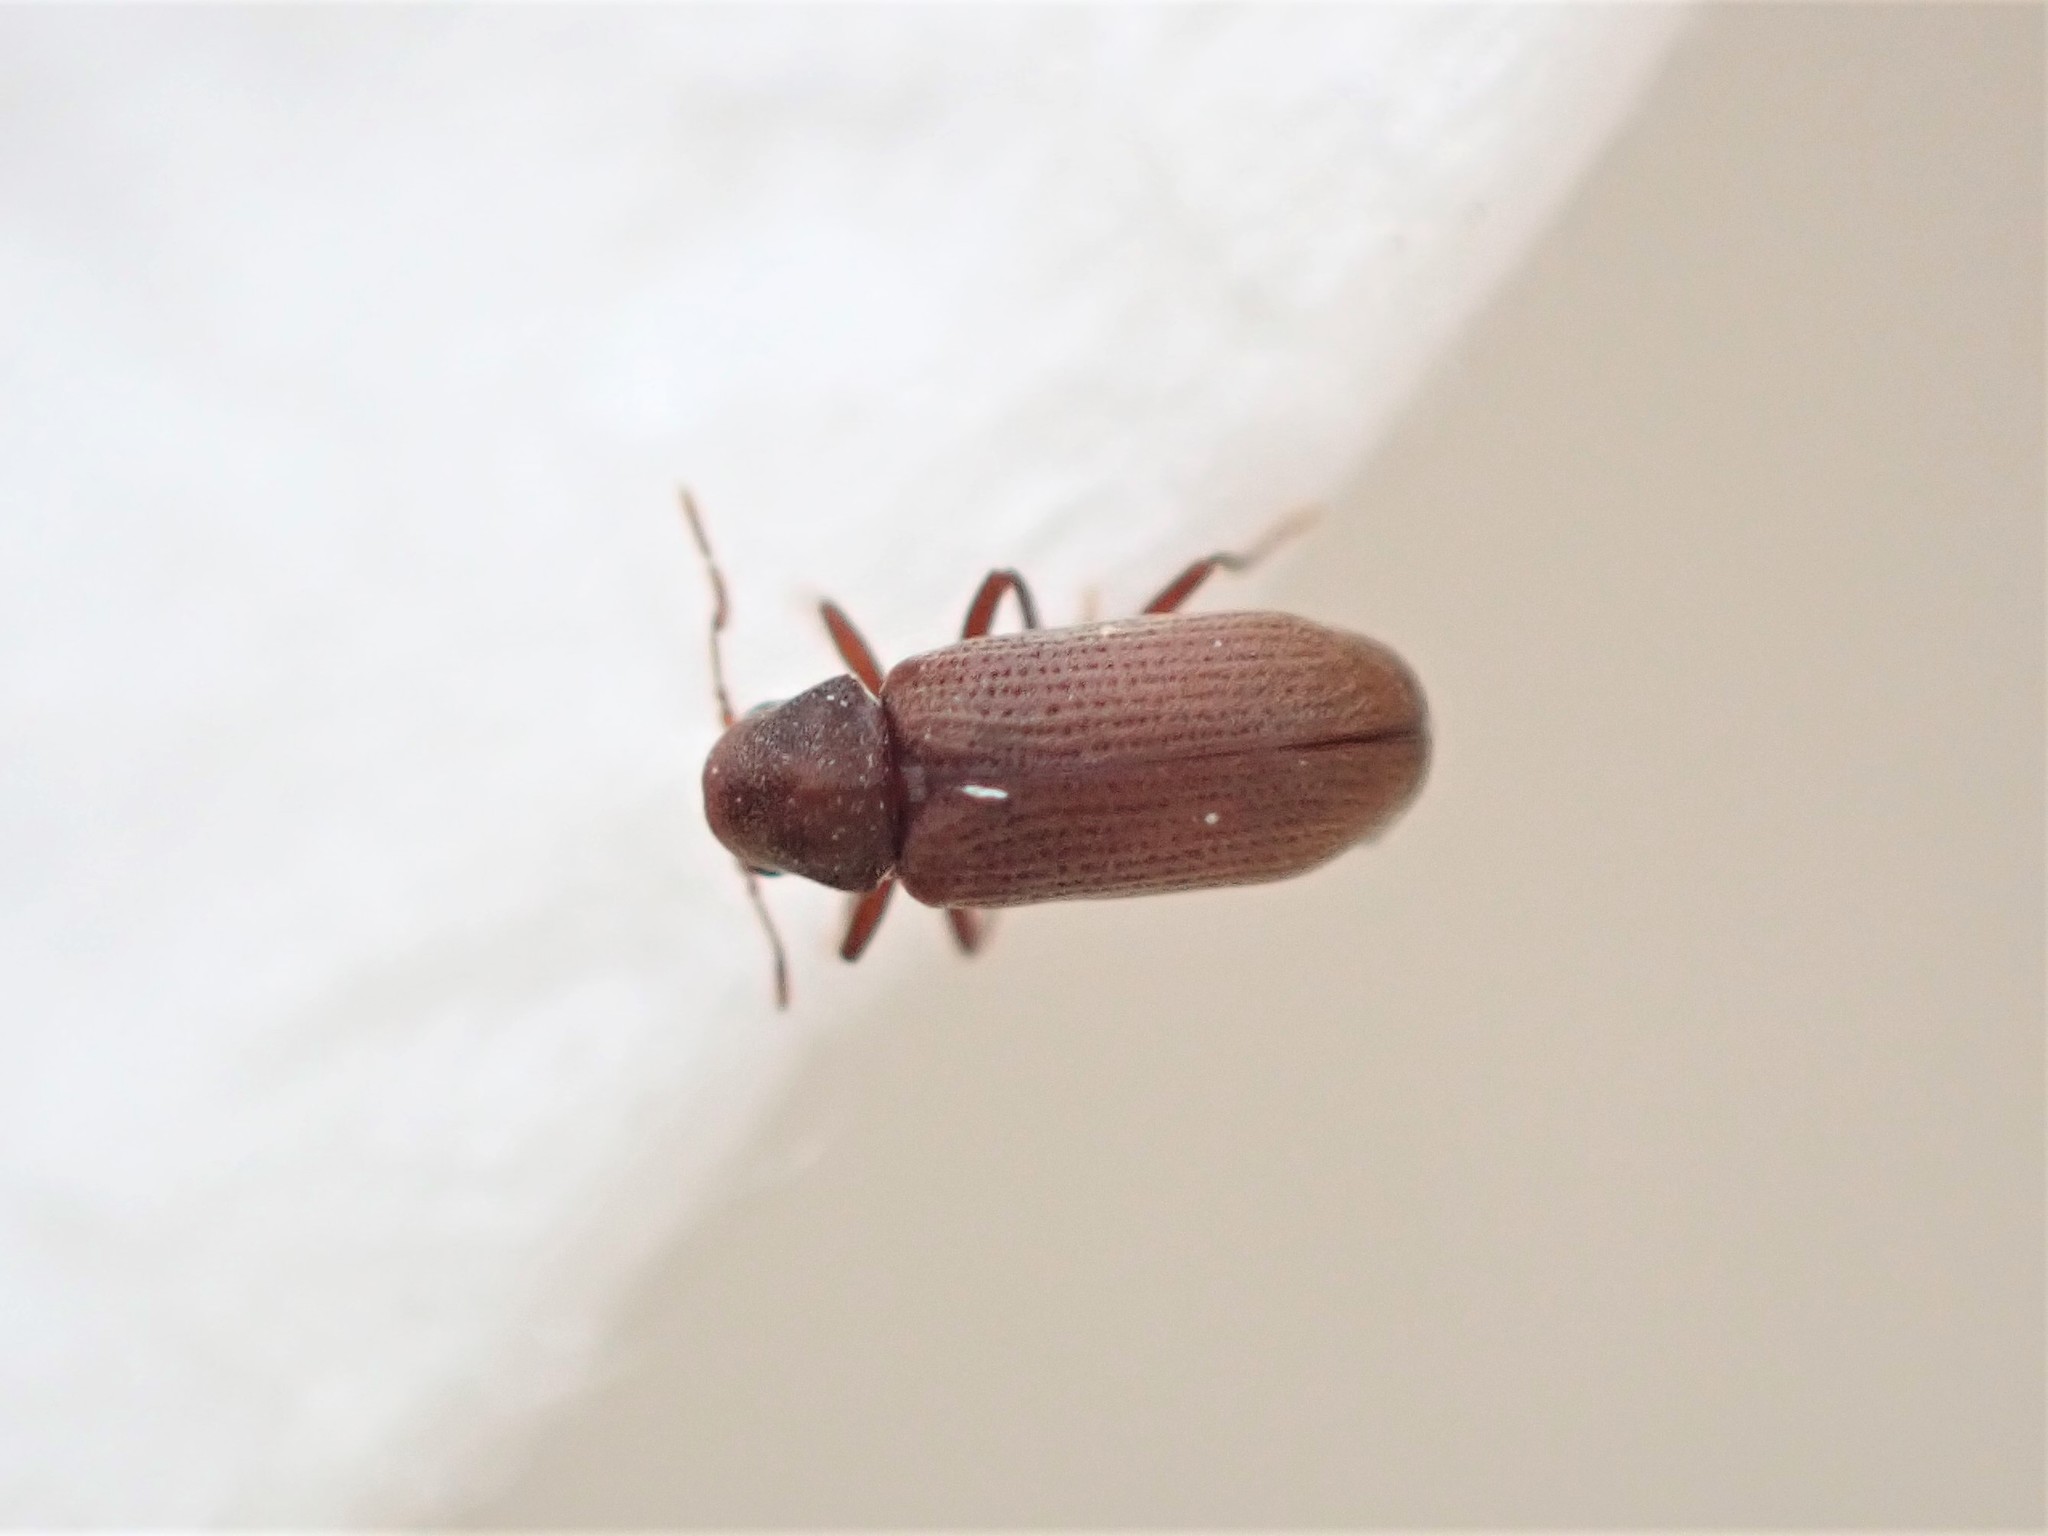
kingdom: Animalia
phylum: Arthropoda
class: Insecta
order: Coleoptera
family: Anobiidae
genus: Anobium
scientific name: Anobium punctatum
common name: Furniture beetle
